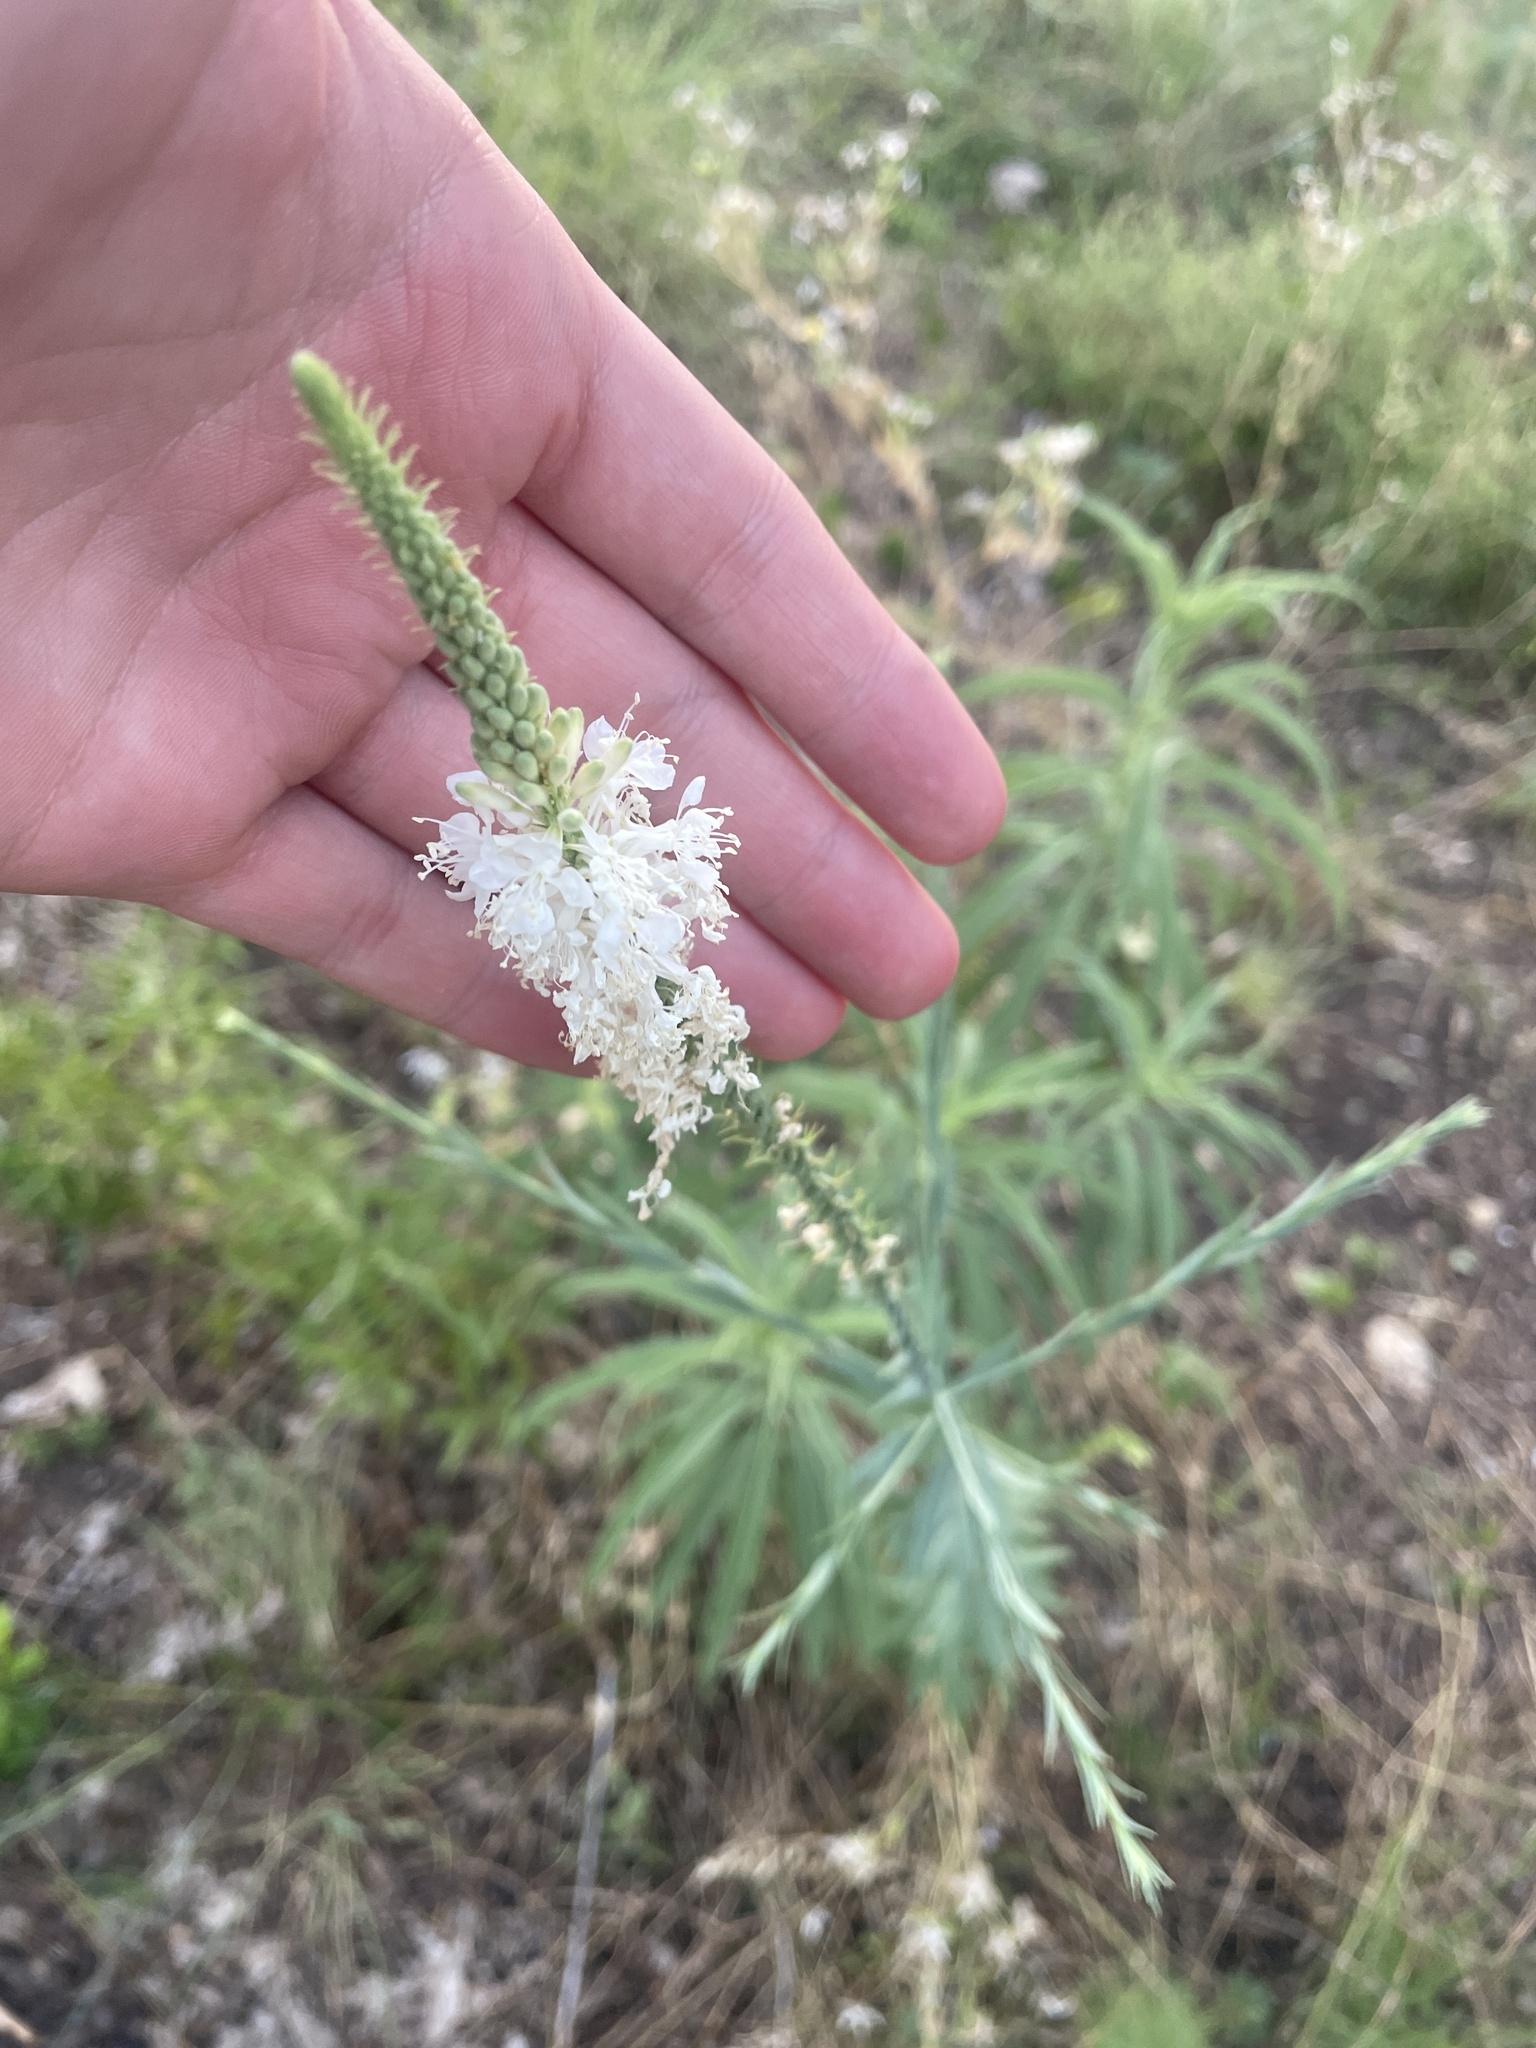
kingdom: Plantae
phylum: Tracheophyta
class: Magnoliopsida
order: Myrtales
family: Onagraceae
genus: Oenothera
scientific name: Oenothera glaucifolia
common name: False gaura
